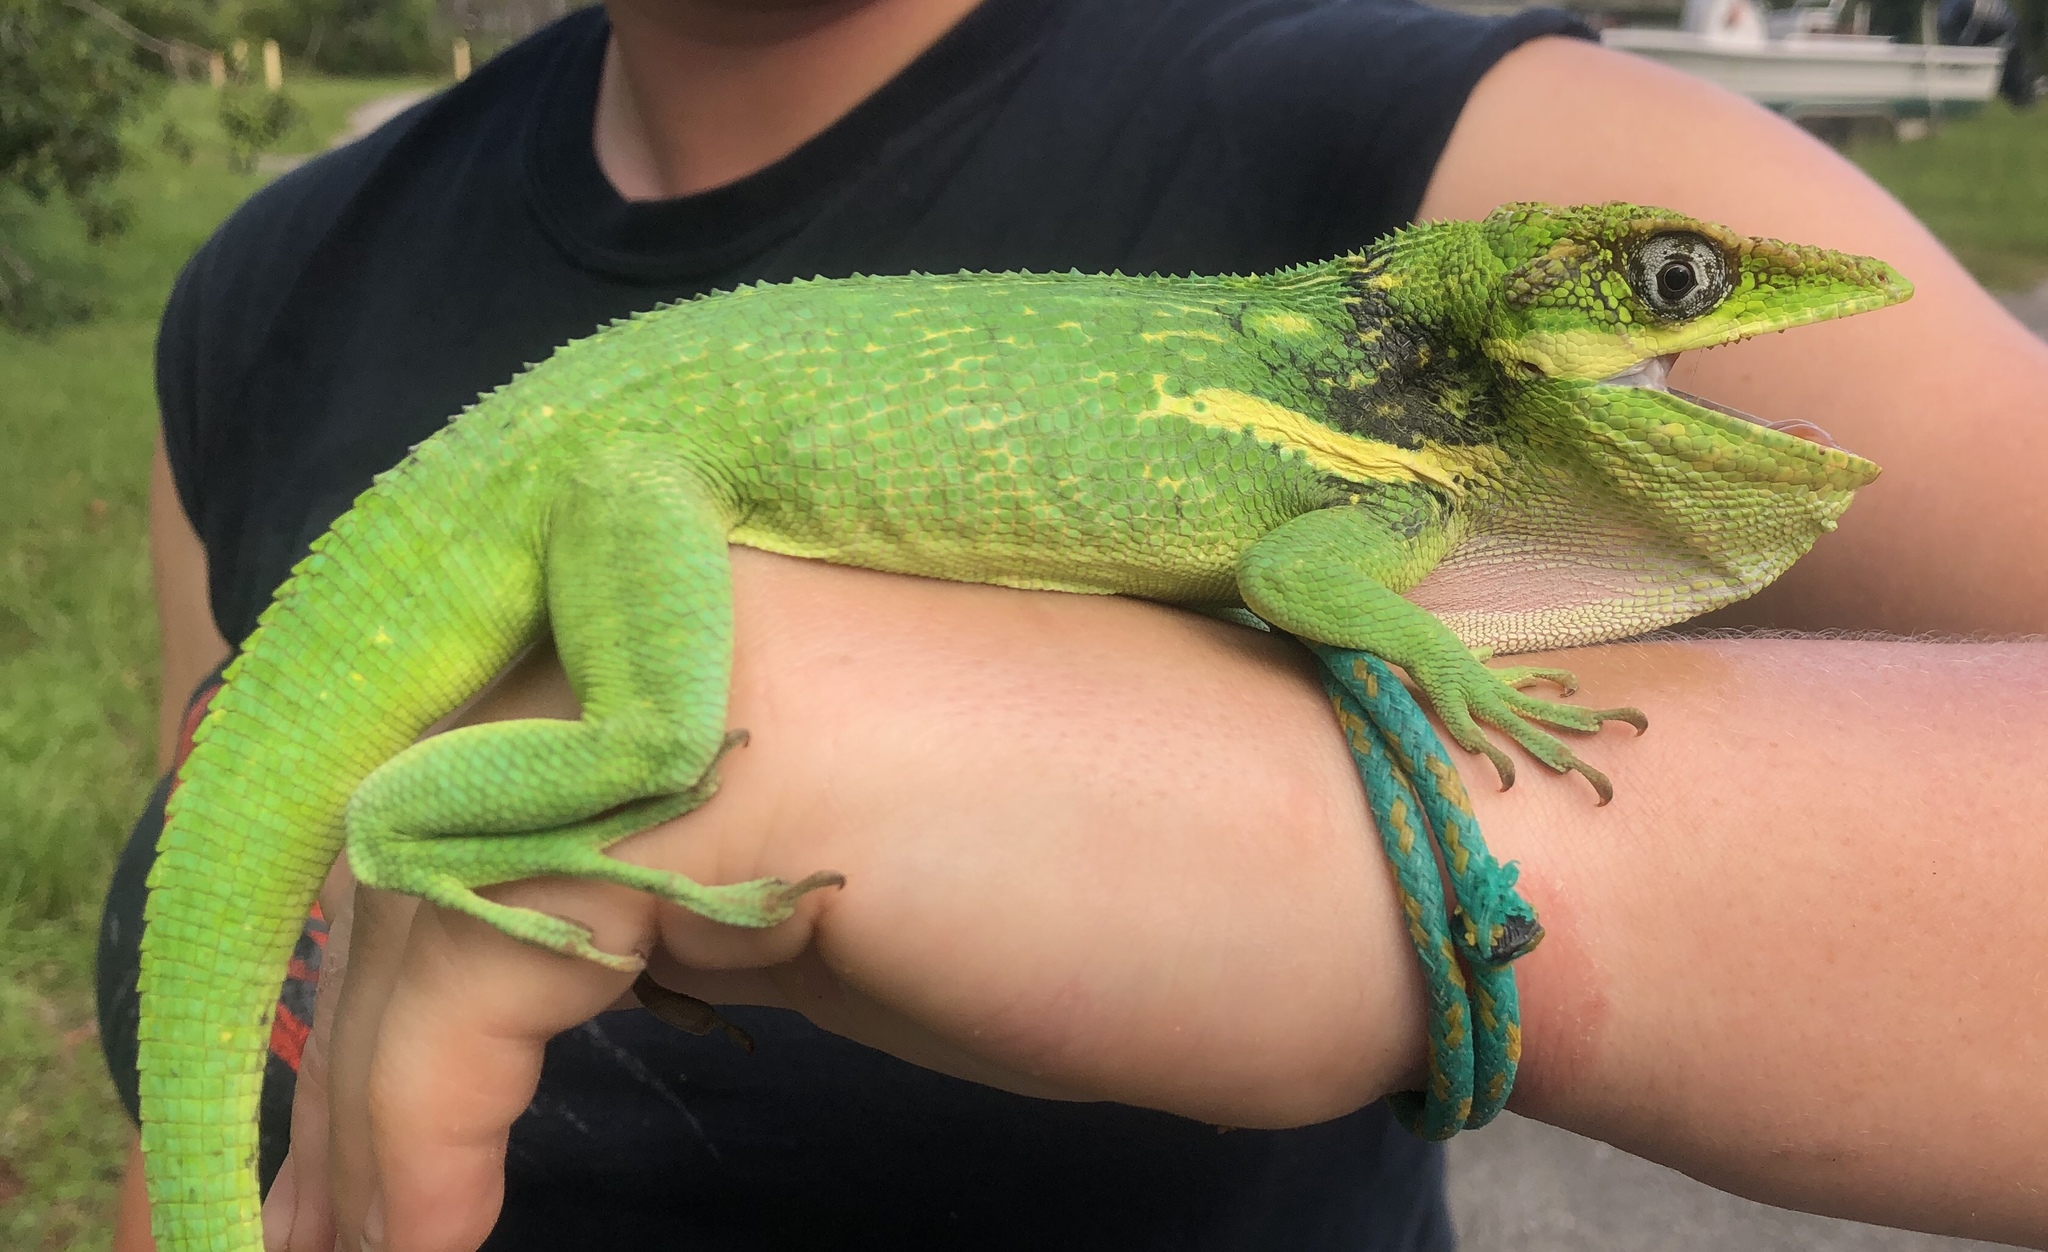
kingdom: Animalia
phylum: Chordata
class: Squamata
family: Dactyloidae
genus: Anolis
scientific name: Anolis equestris
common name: Knight anole
